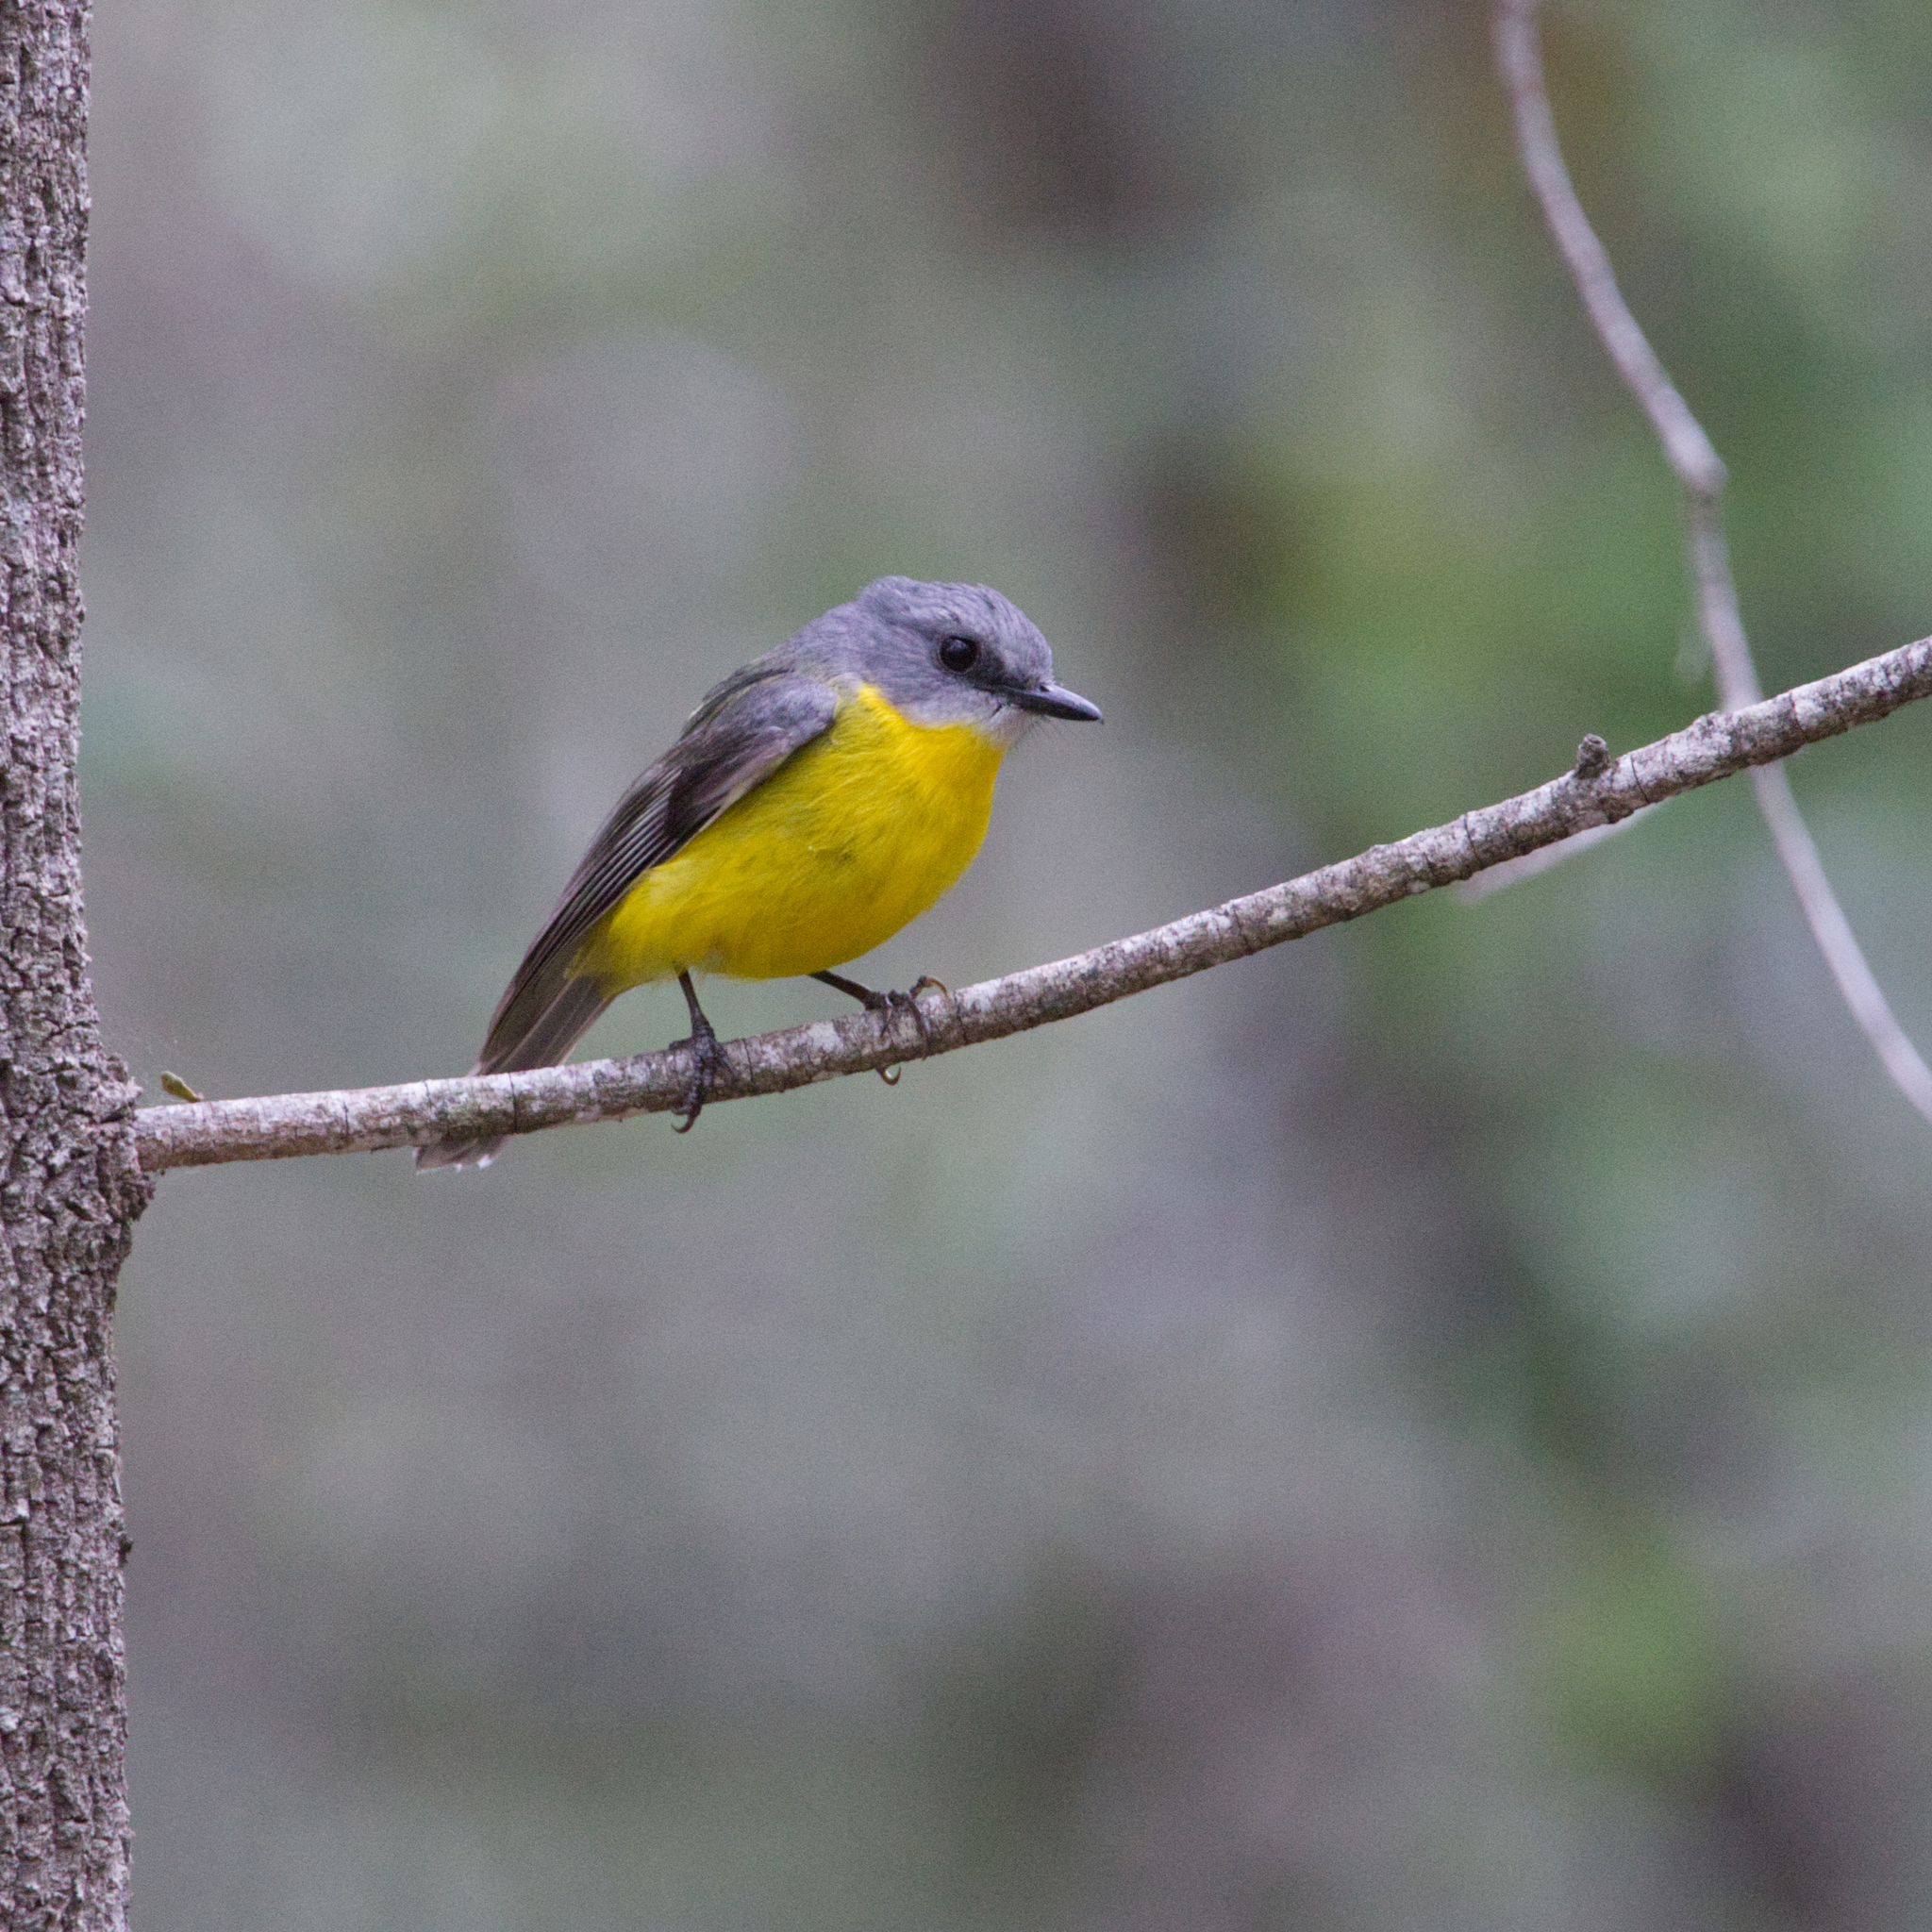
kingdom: Animalia
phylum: Chordata
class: Aves
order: Passeriformes
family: Petroicidae
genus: Eopsaltria
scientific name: Eopsaltria australis
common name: Eastern yellow robin
